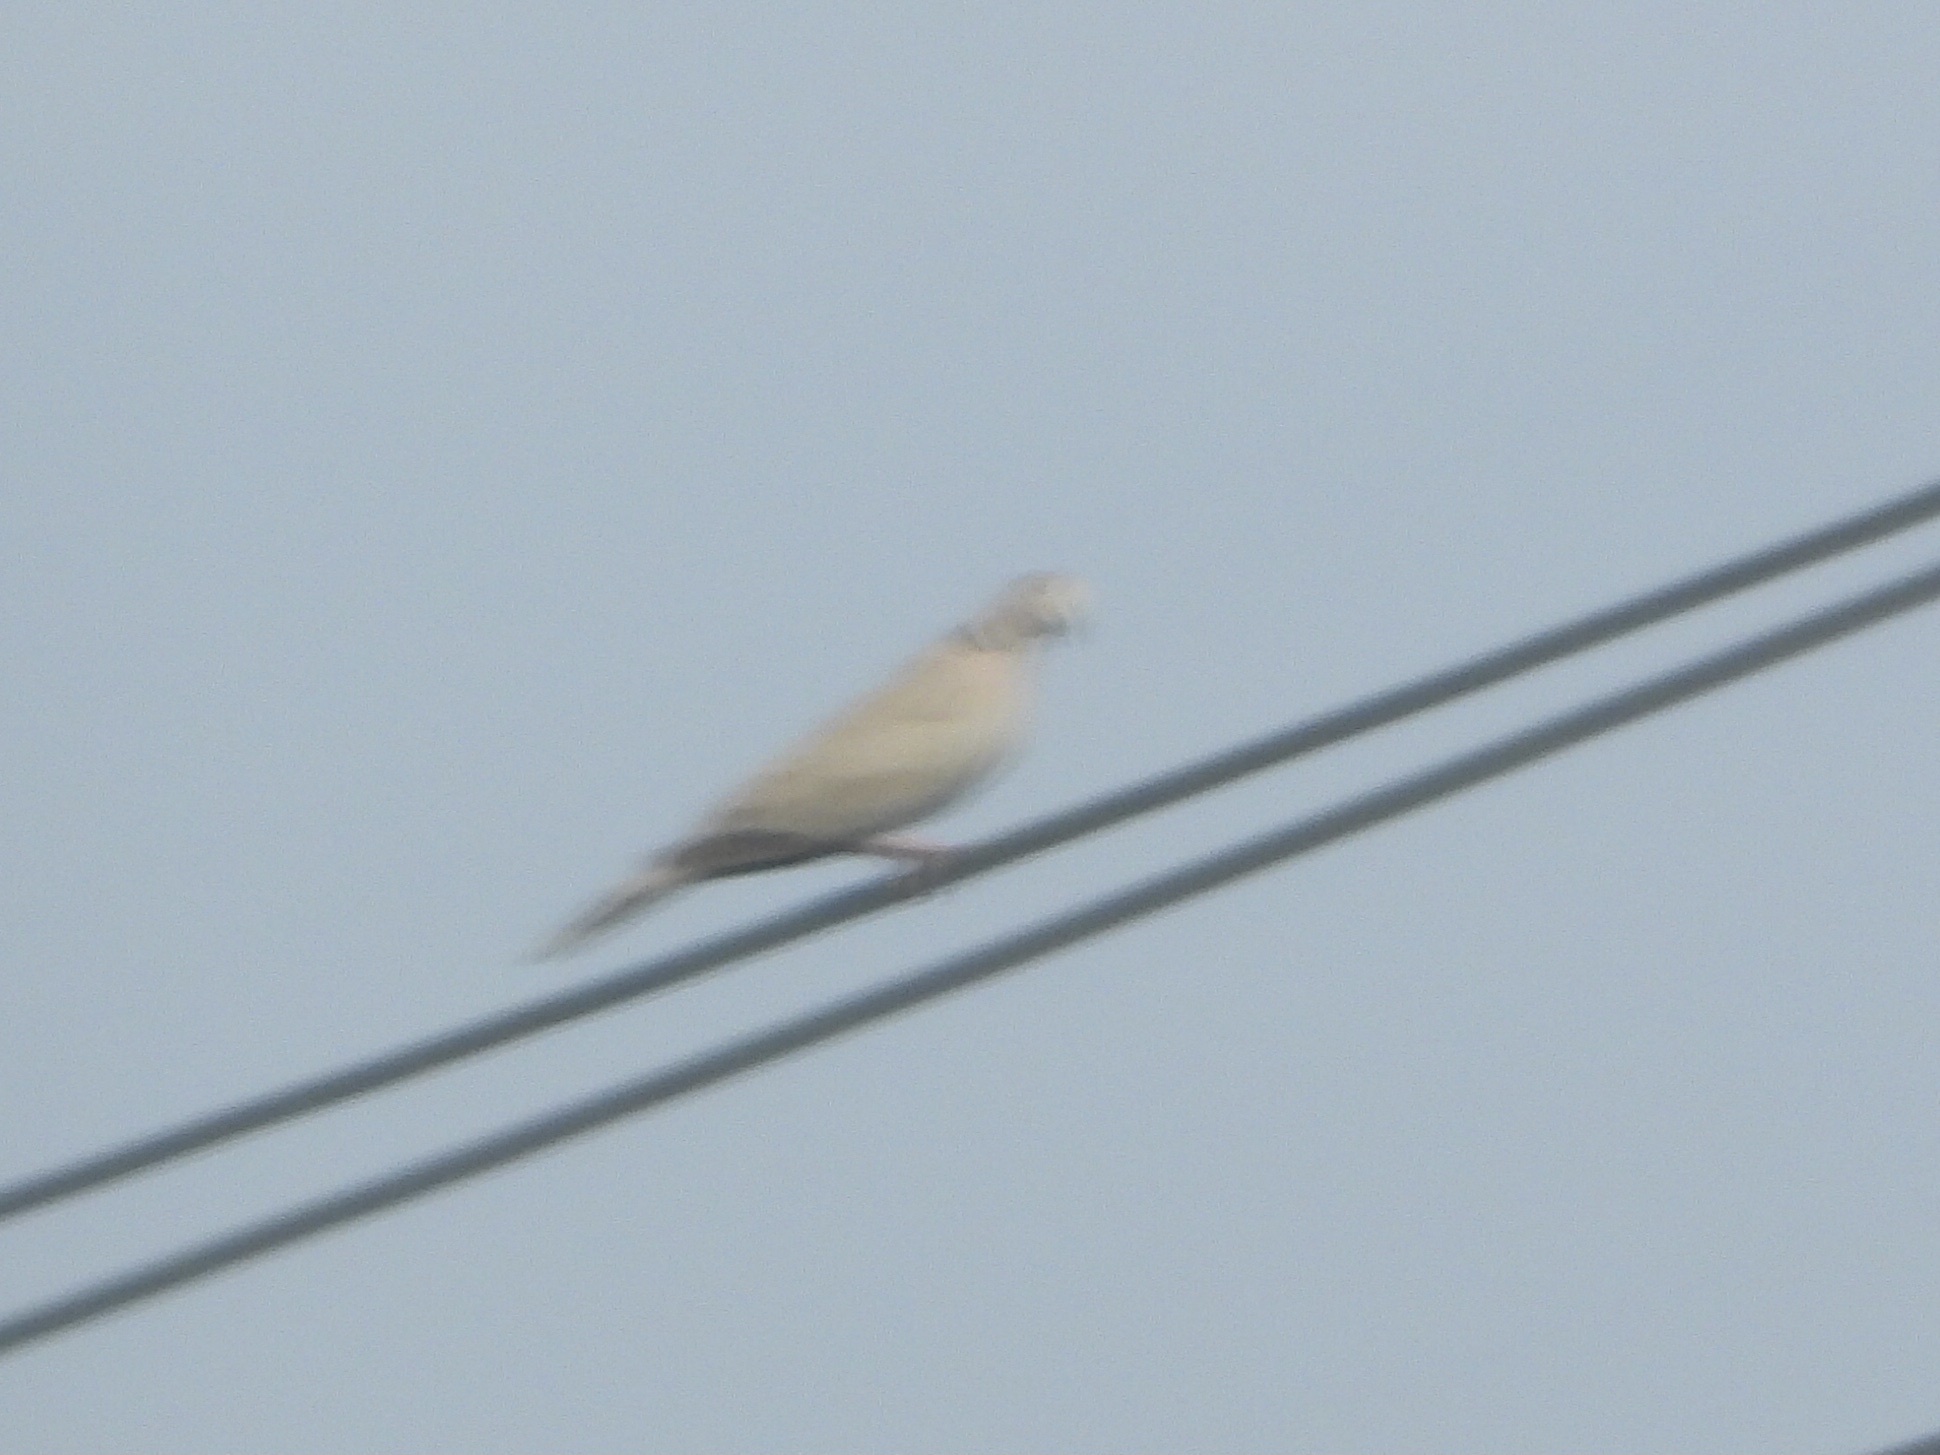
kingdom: Animalia
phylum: Chordata
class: Aves
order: Columbiformes
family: Columbidae
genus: Streptopelia
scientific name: Streptopelia decaocto
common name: Eurasian collared dove
